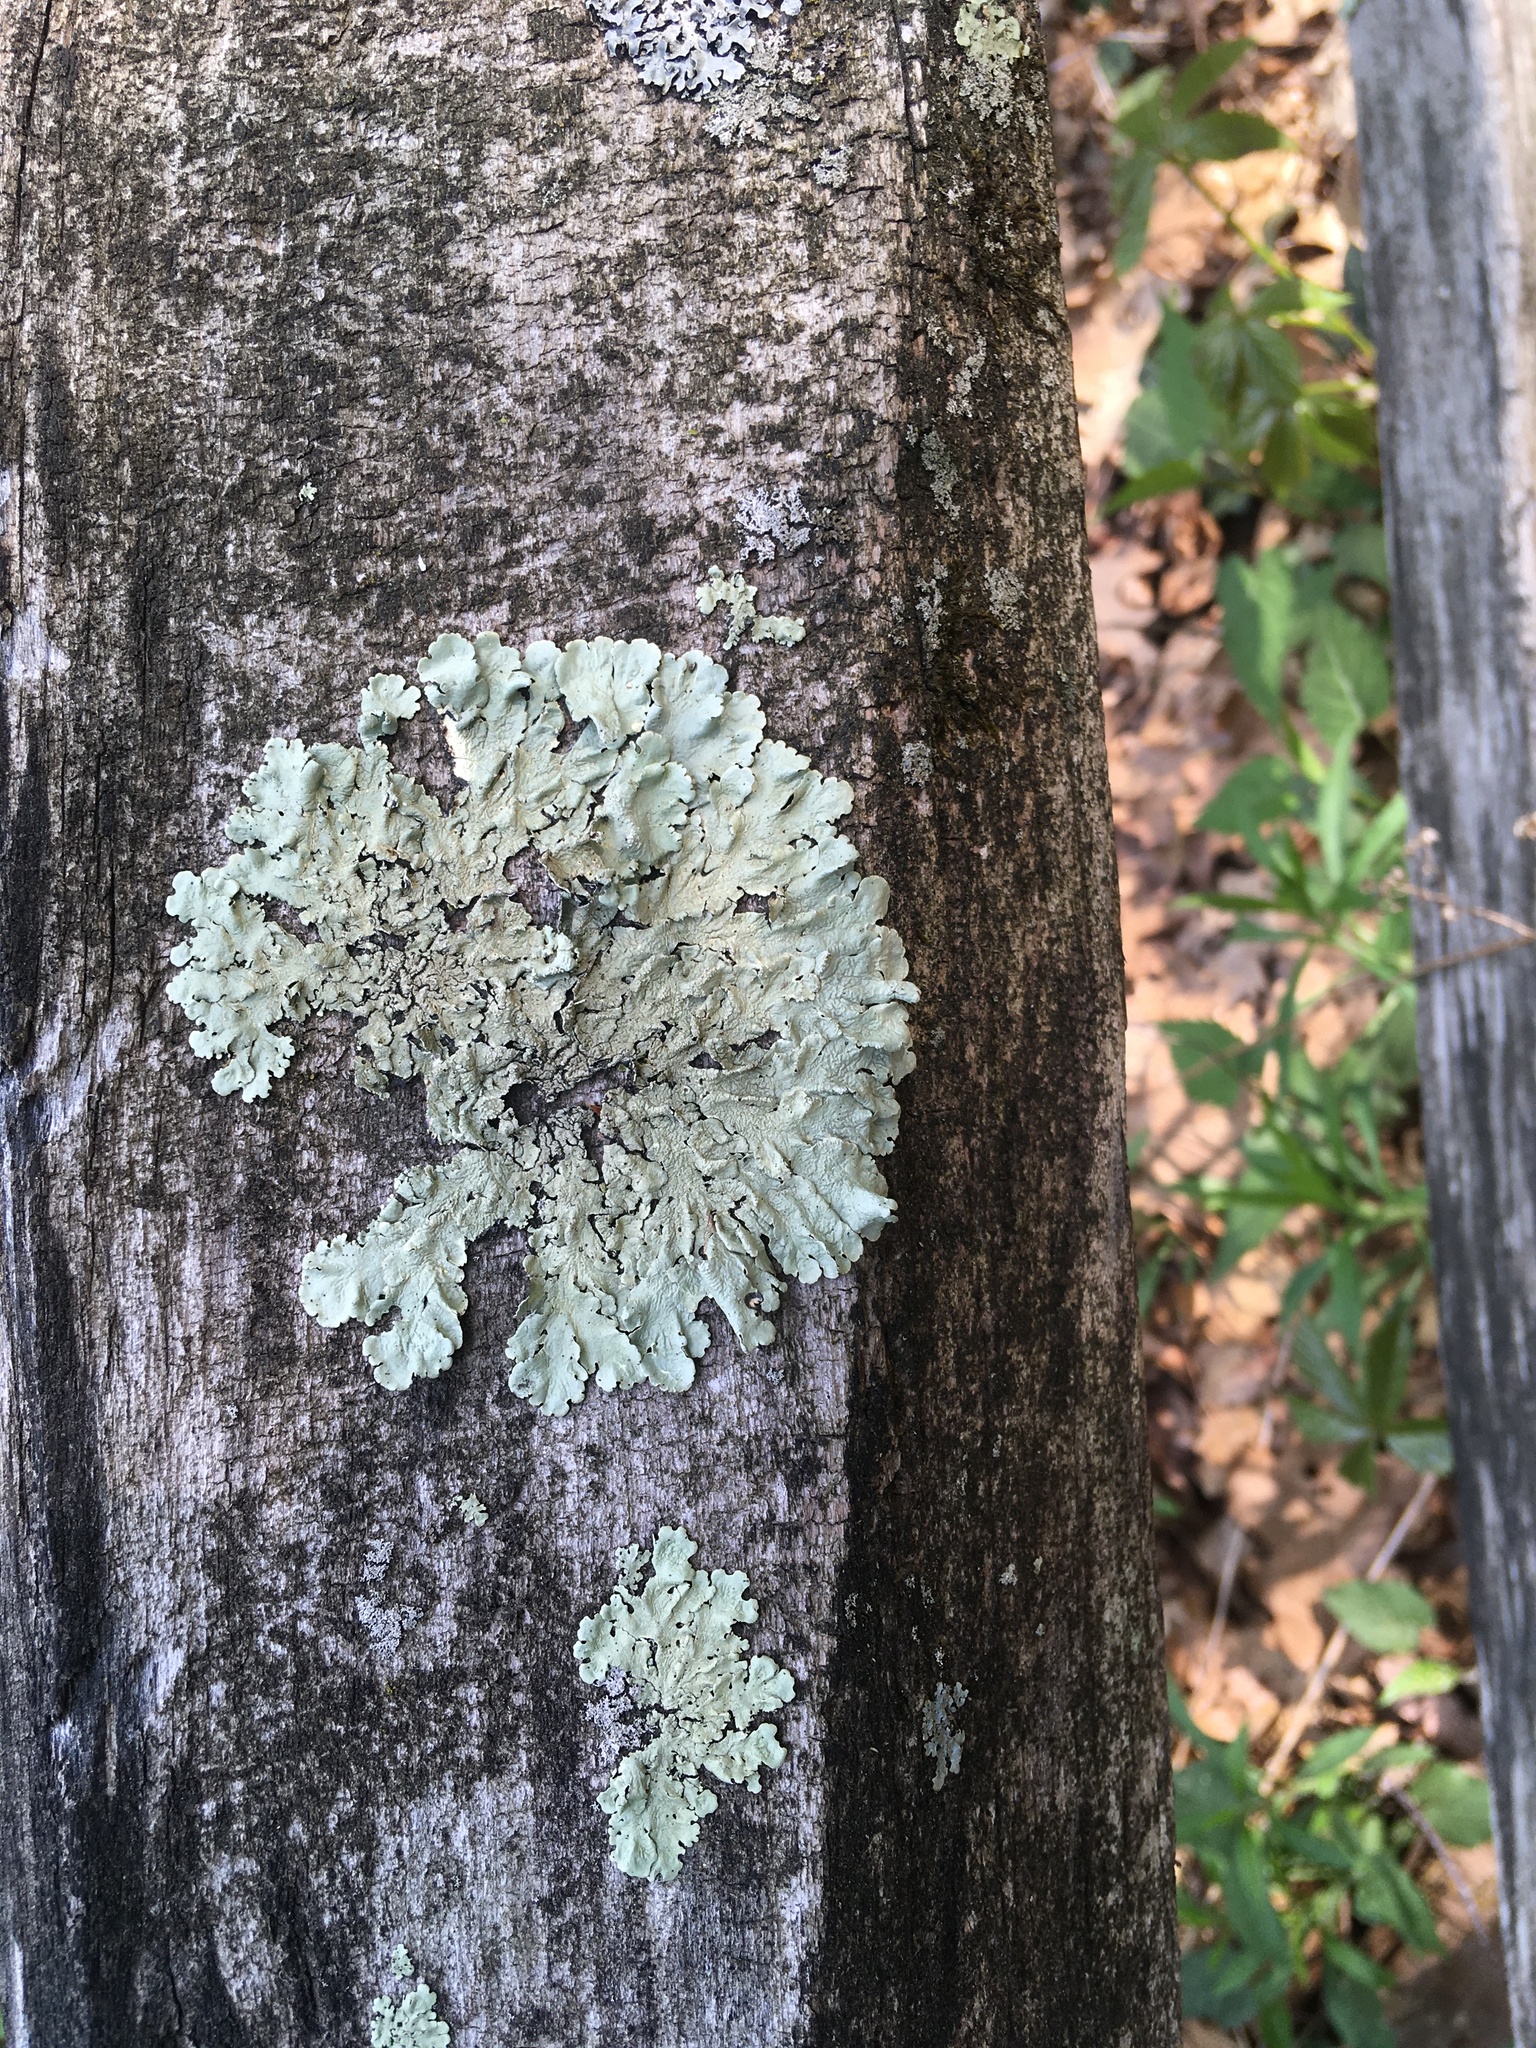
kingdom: Fungi
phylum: Ascomycota
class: Lecanoromycetes
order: Lecanorales
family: Parmeliaceae
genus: Flavoparmelia
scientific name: Flavoparmelia caperata
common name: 40-mile per hour lichen
